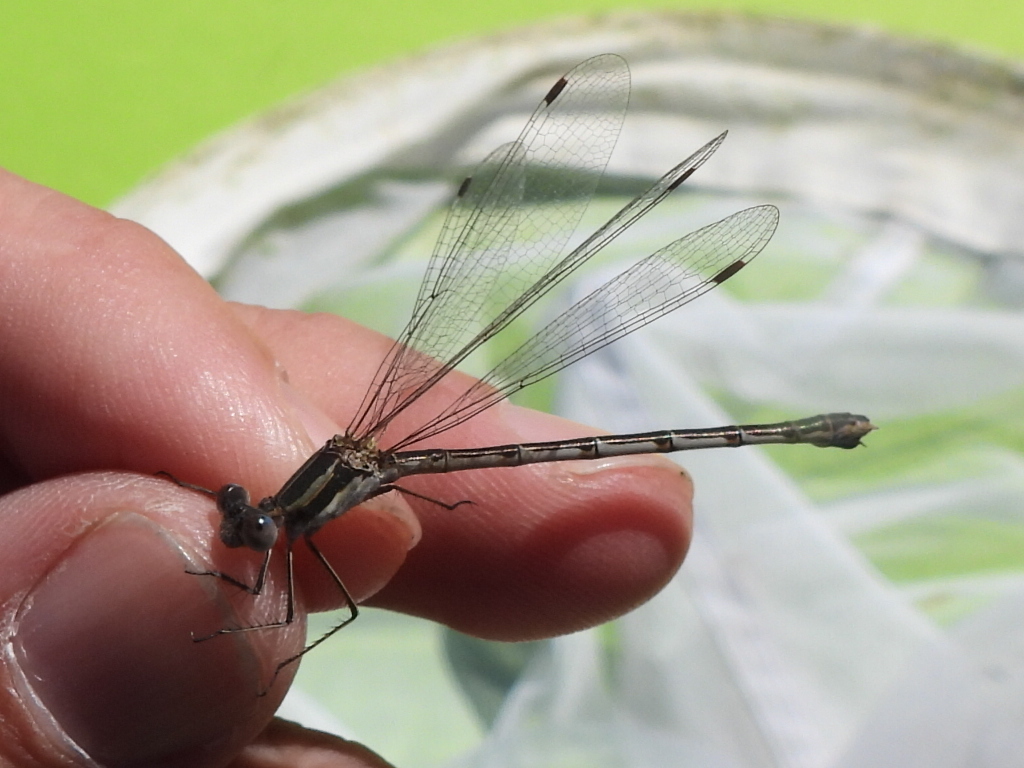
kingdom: Animalia
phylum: Arthropoda
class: Insecta
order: Odonata
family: Lestidae
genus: Lestes
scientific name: Lestes australis
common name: Southern spreadwing
